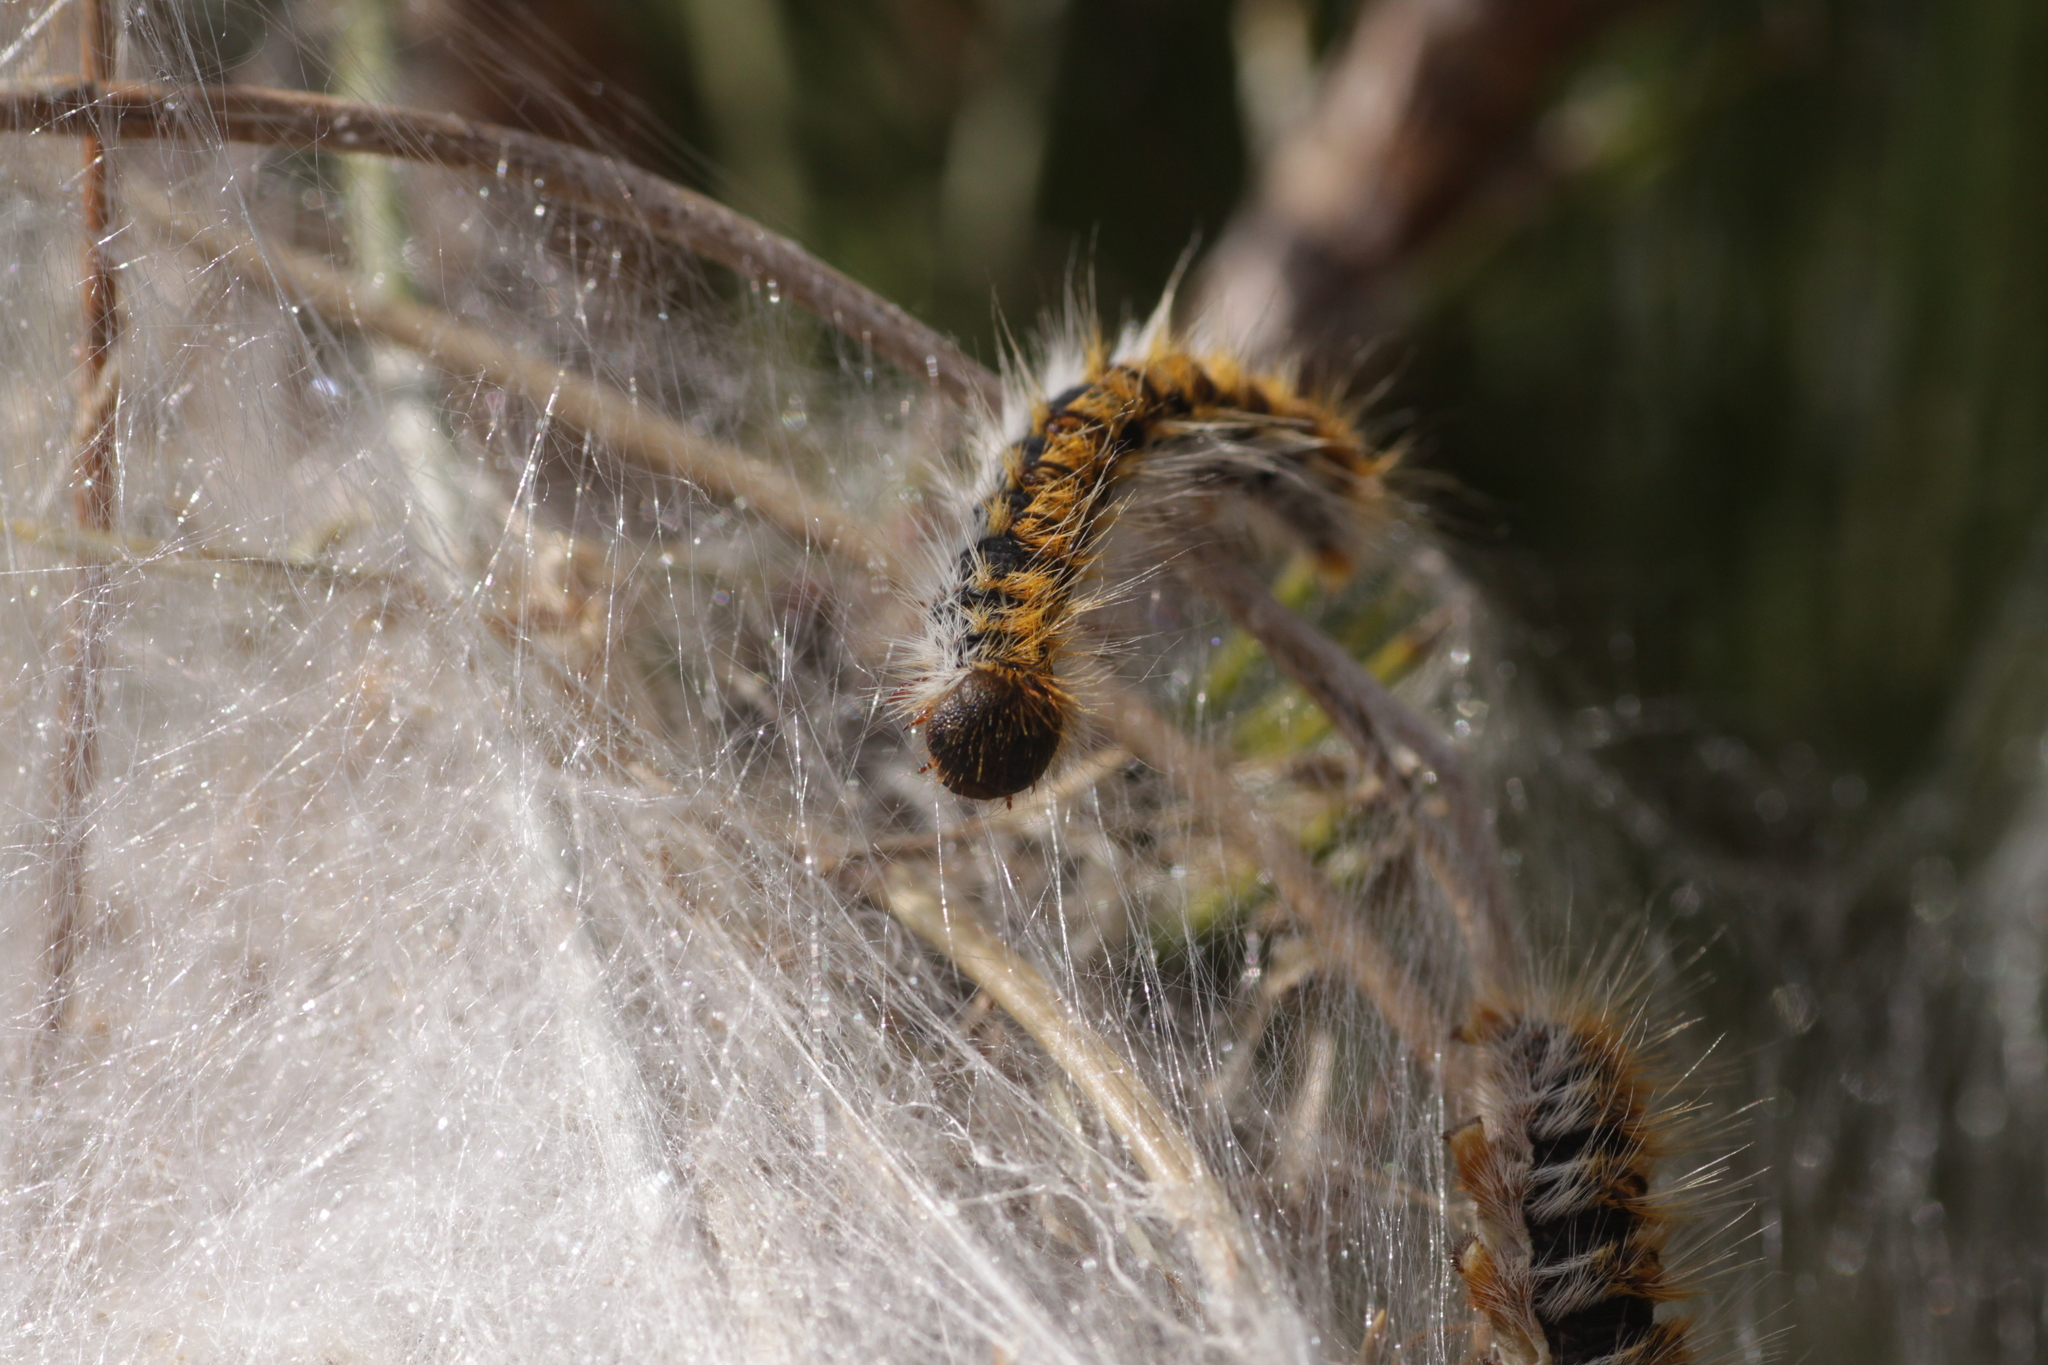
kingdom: Animalia
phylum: Arthropoda
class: Insecta
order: Lepidoptera
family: Notodontidae
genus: Thaumetopoea
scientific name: Thaumetopoea pityocampa
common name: Pine processionary
